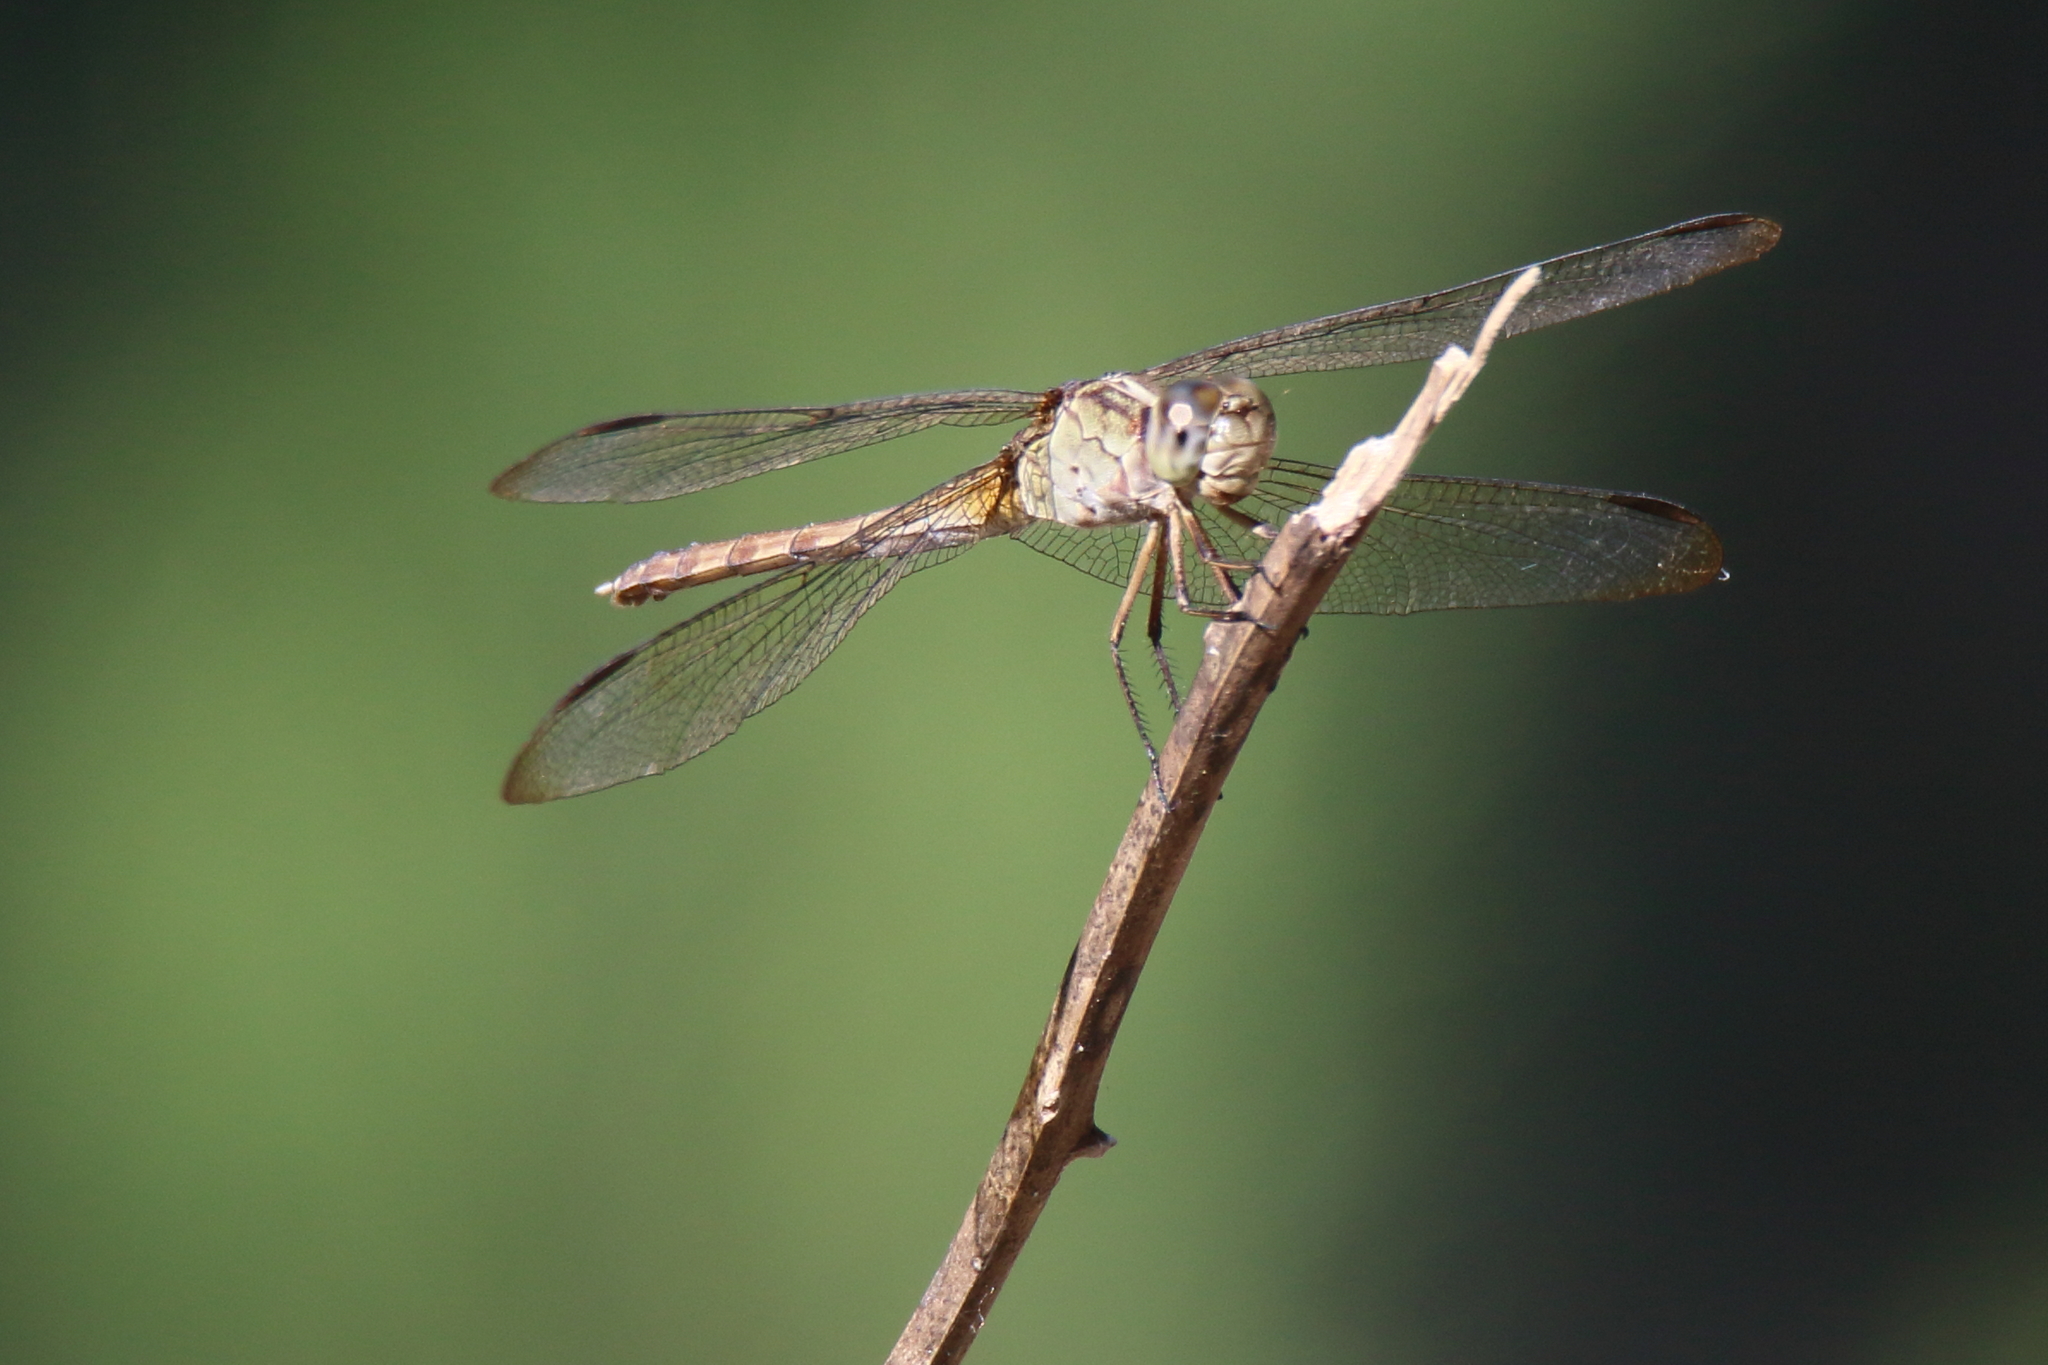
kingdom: Animalia
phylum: Arthropoda
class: Insecta
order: Odonata
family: Libellulidae
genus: Erythrodiplax
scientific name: Erythrodiplax umbrata
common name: Band-winged dragonlet
